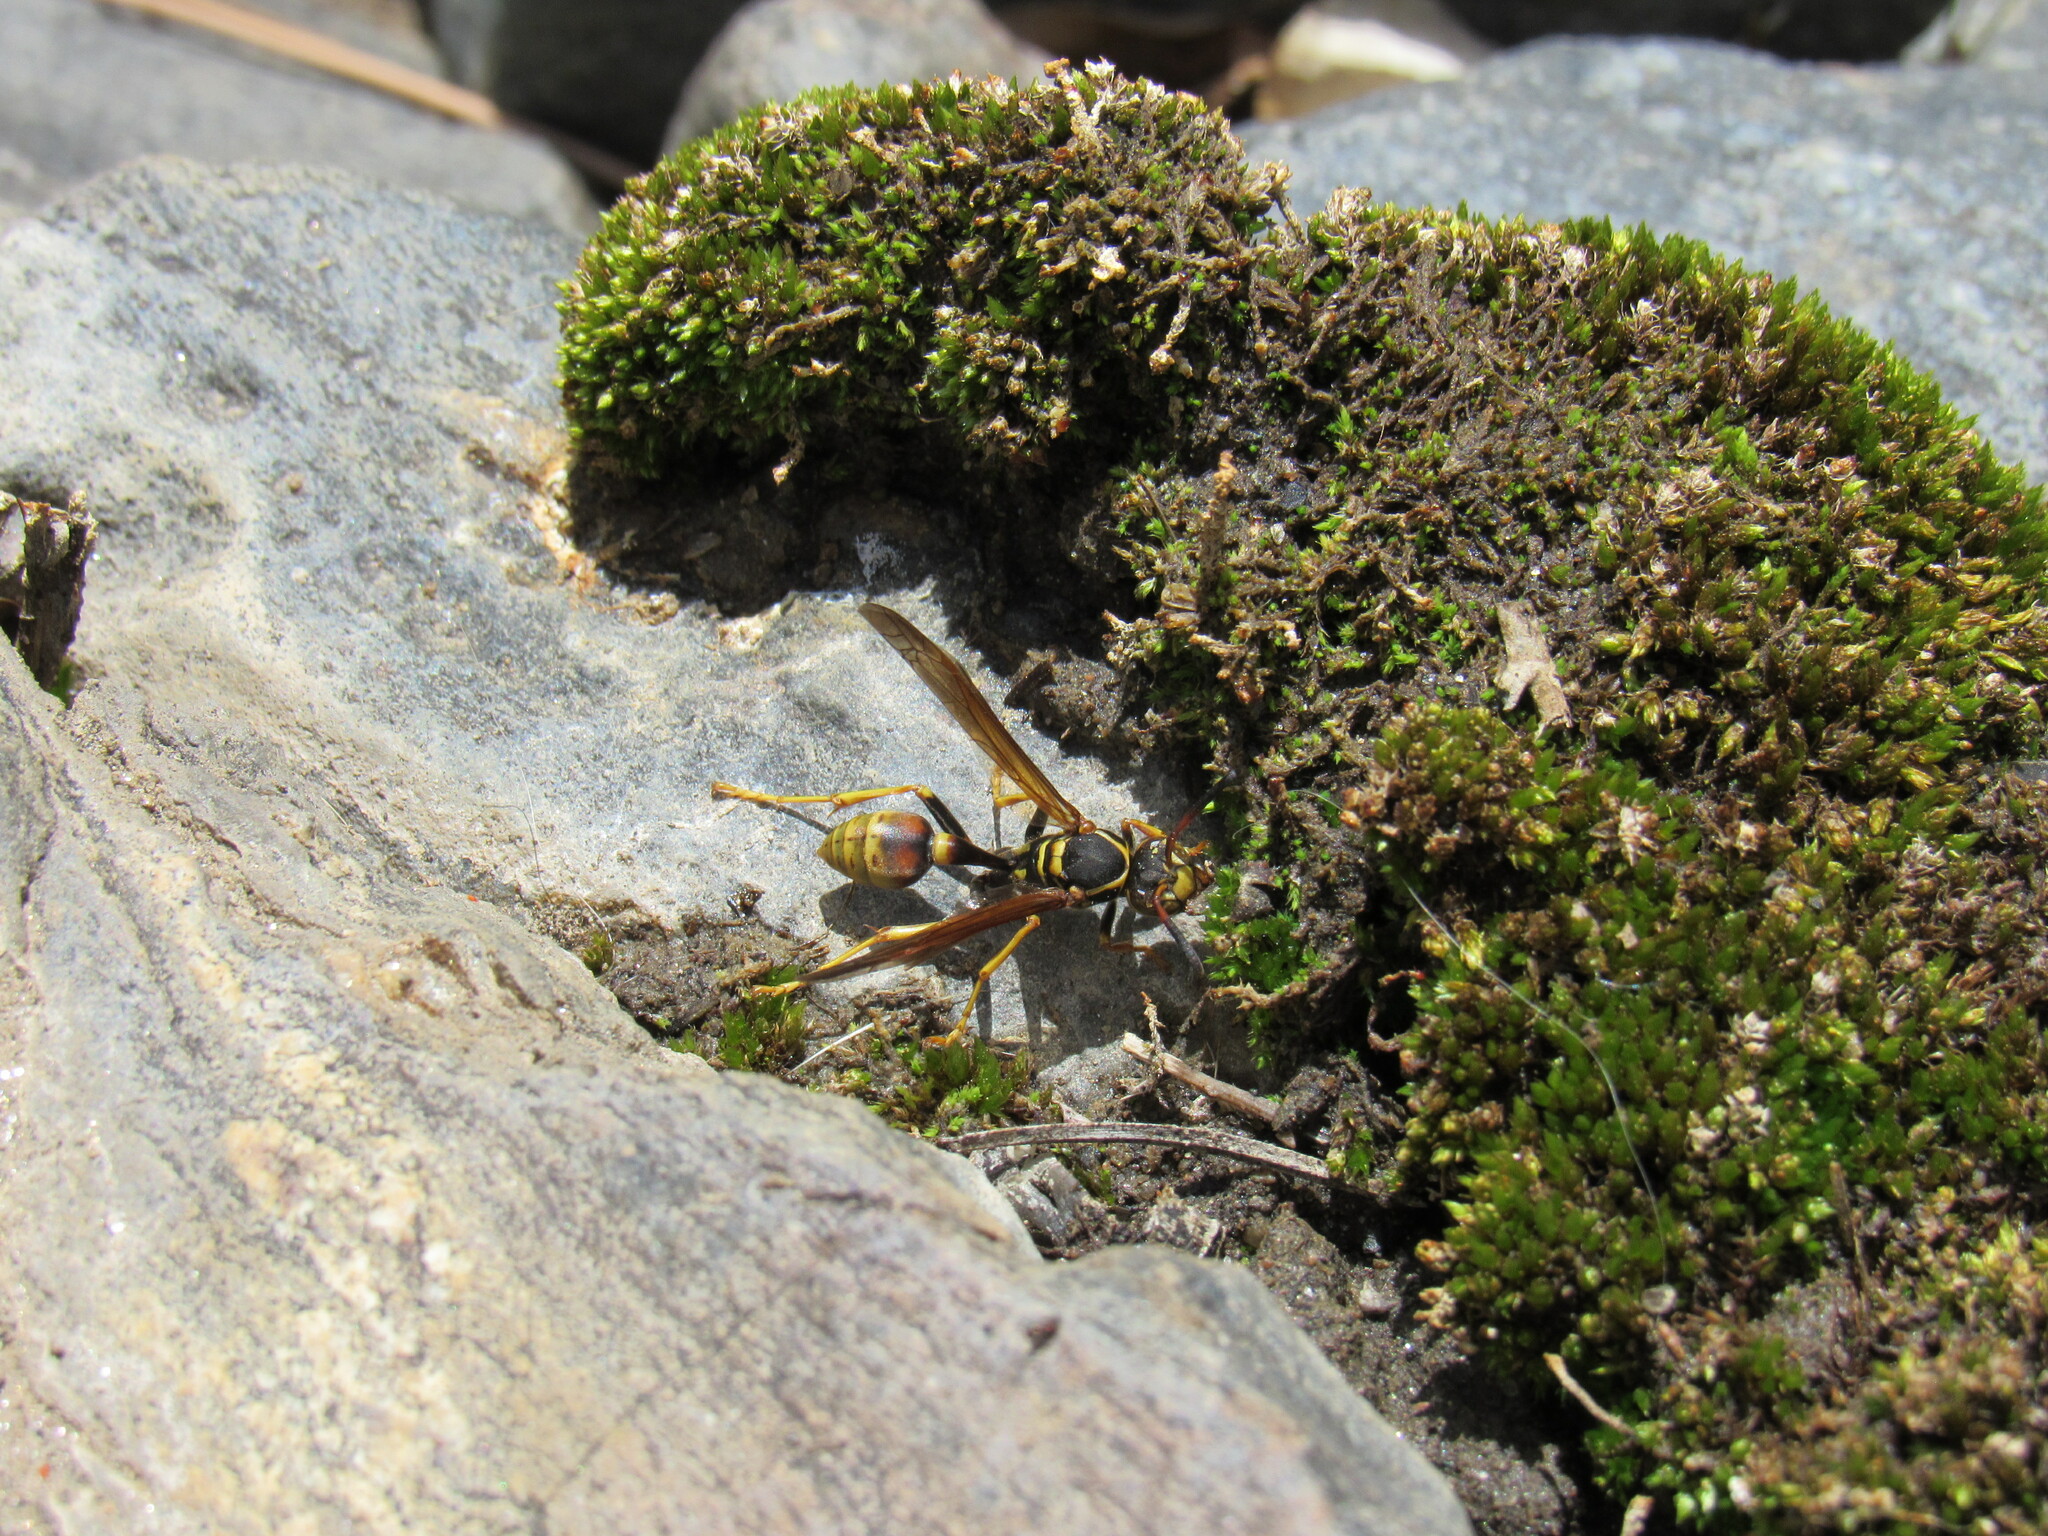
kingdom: Animalia
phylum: Arthropoda
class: Insecta
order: Hymenoptera
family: Vespidae
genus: Mischocyttarus
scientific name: Mischocyttarus flavitarsis
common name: Wasp
